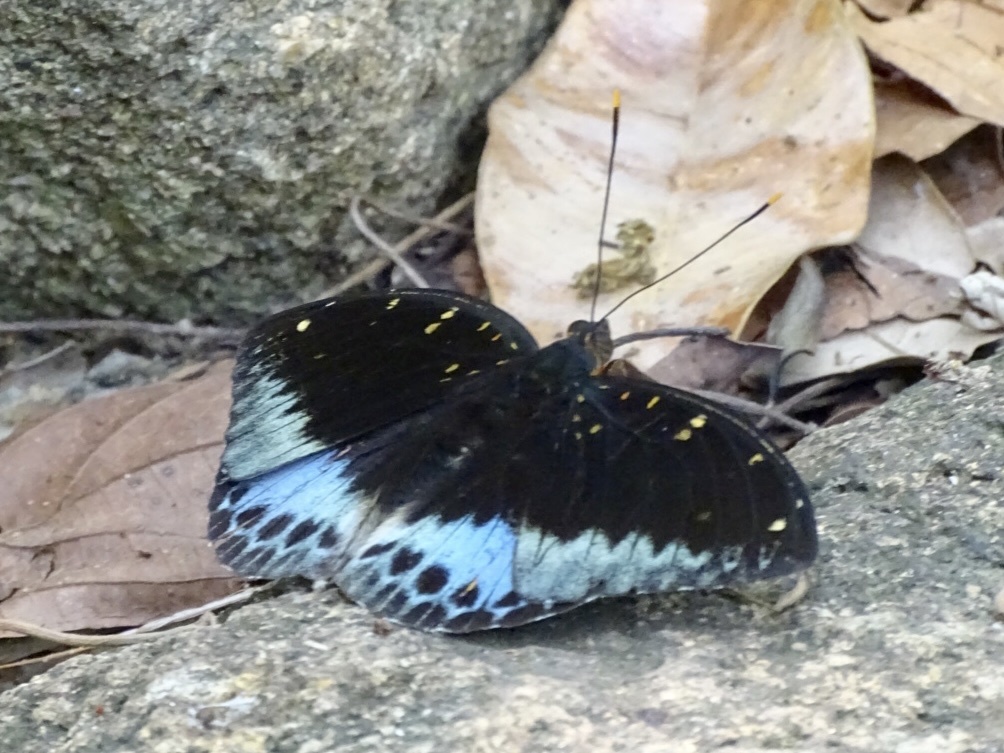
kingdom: Animalia
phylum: Arthropoda
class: Insecta
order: Lepidoptera
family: Nymphalidae
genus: Lexias
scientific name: Lexias pardalis
